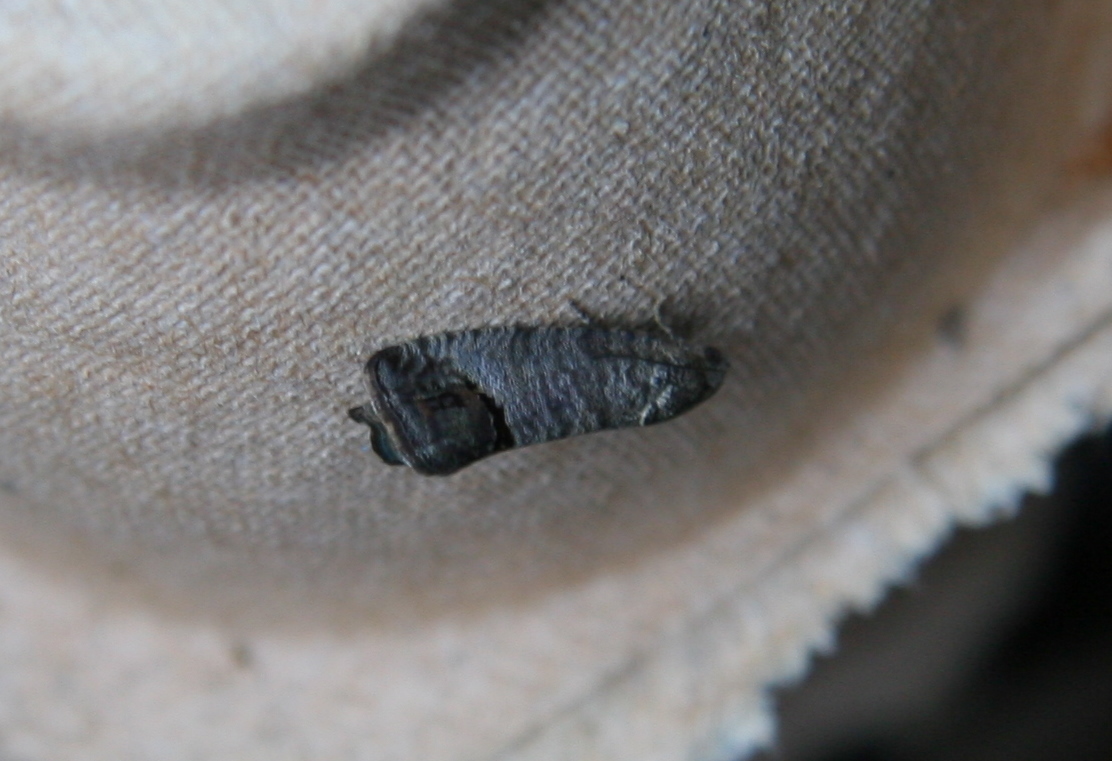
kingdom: Animalia
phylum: Arthropoda
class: Insecta
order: Lepidoptera
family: Tortricidae
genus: Cydia
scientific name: Cydia pomonella
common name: Codling moth
